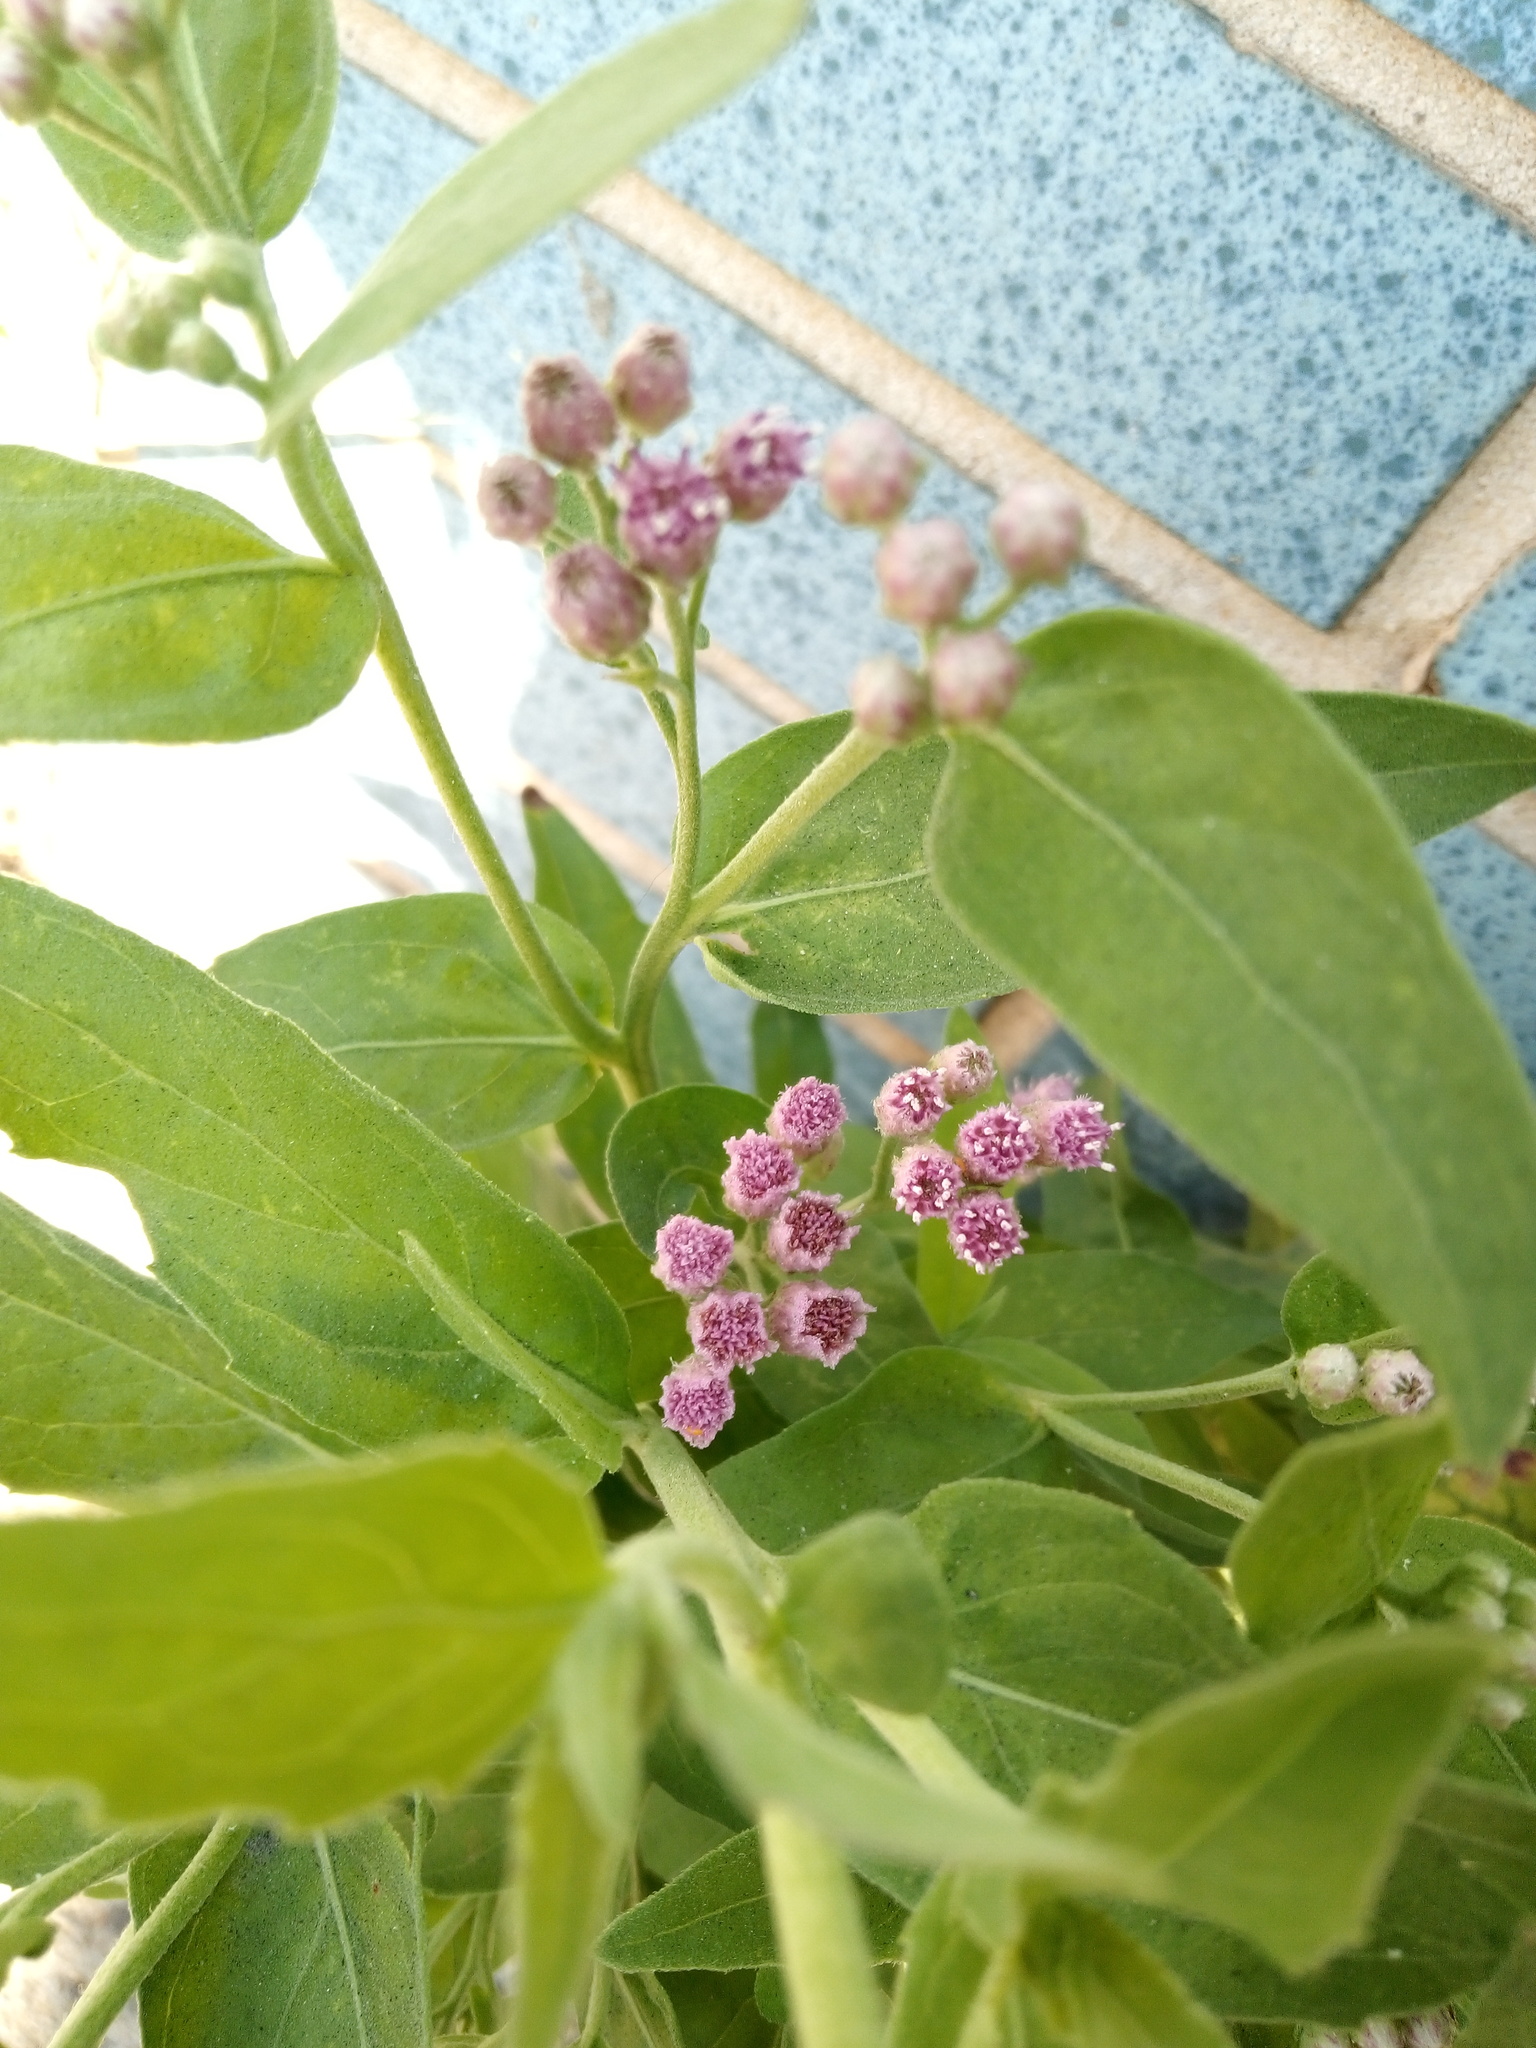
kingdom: Plantae
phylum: Tracheophyta
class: Magnoliopsida
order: Asterales
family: Asteraceae
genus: Pluchea
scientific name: Pluchea odorata
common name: Saltmarsh fleabane
